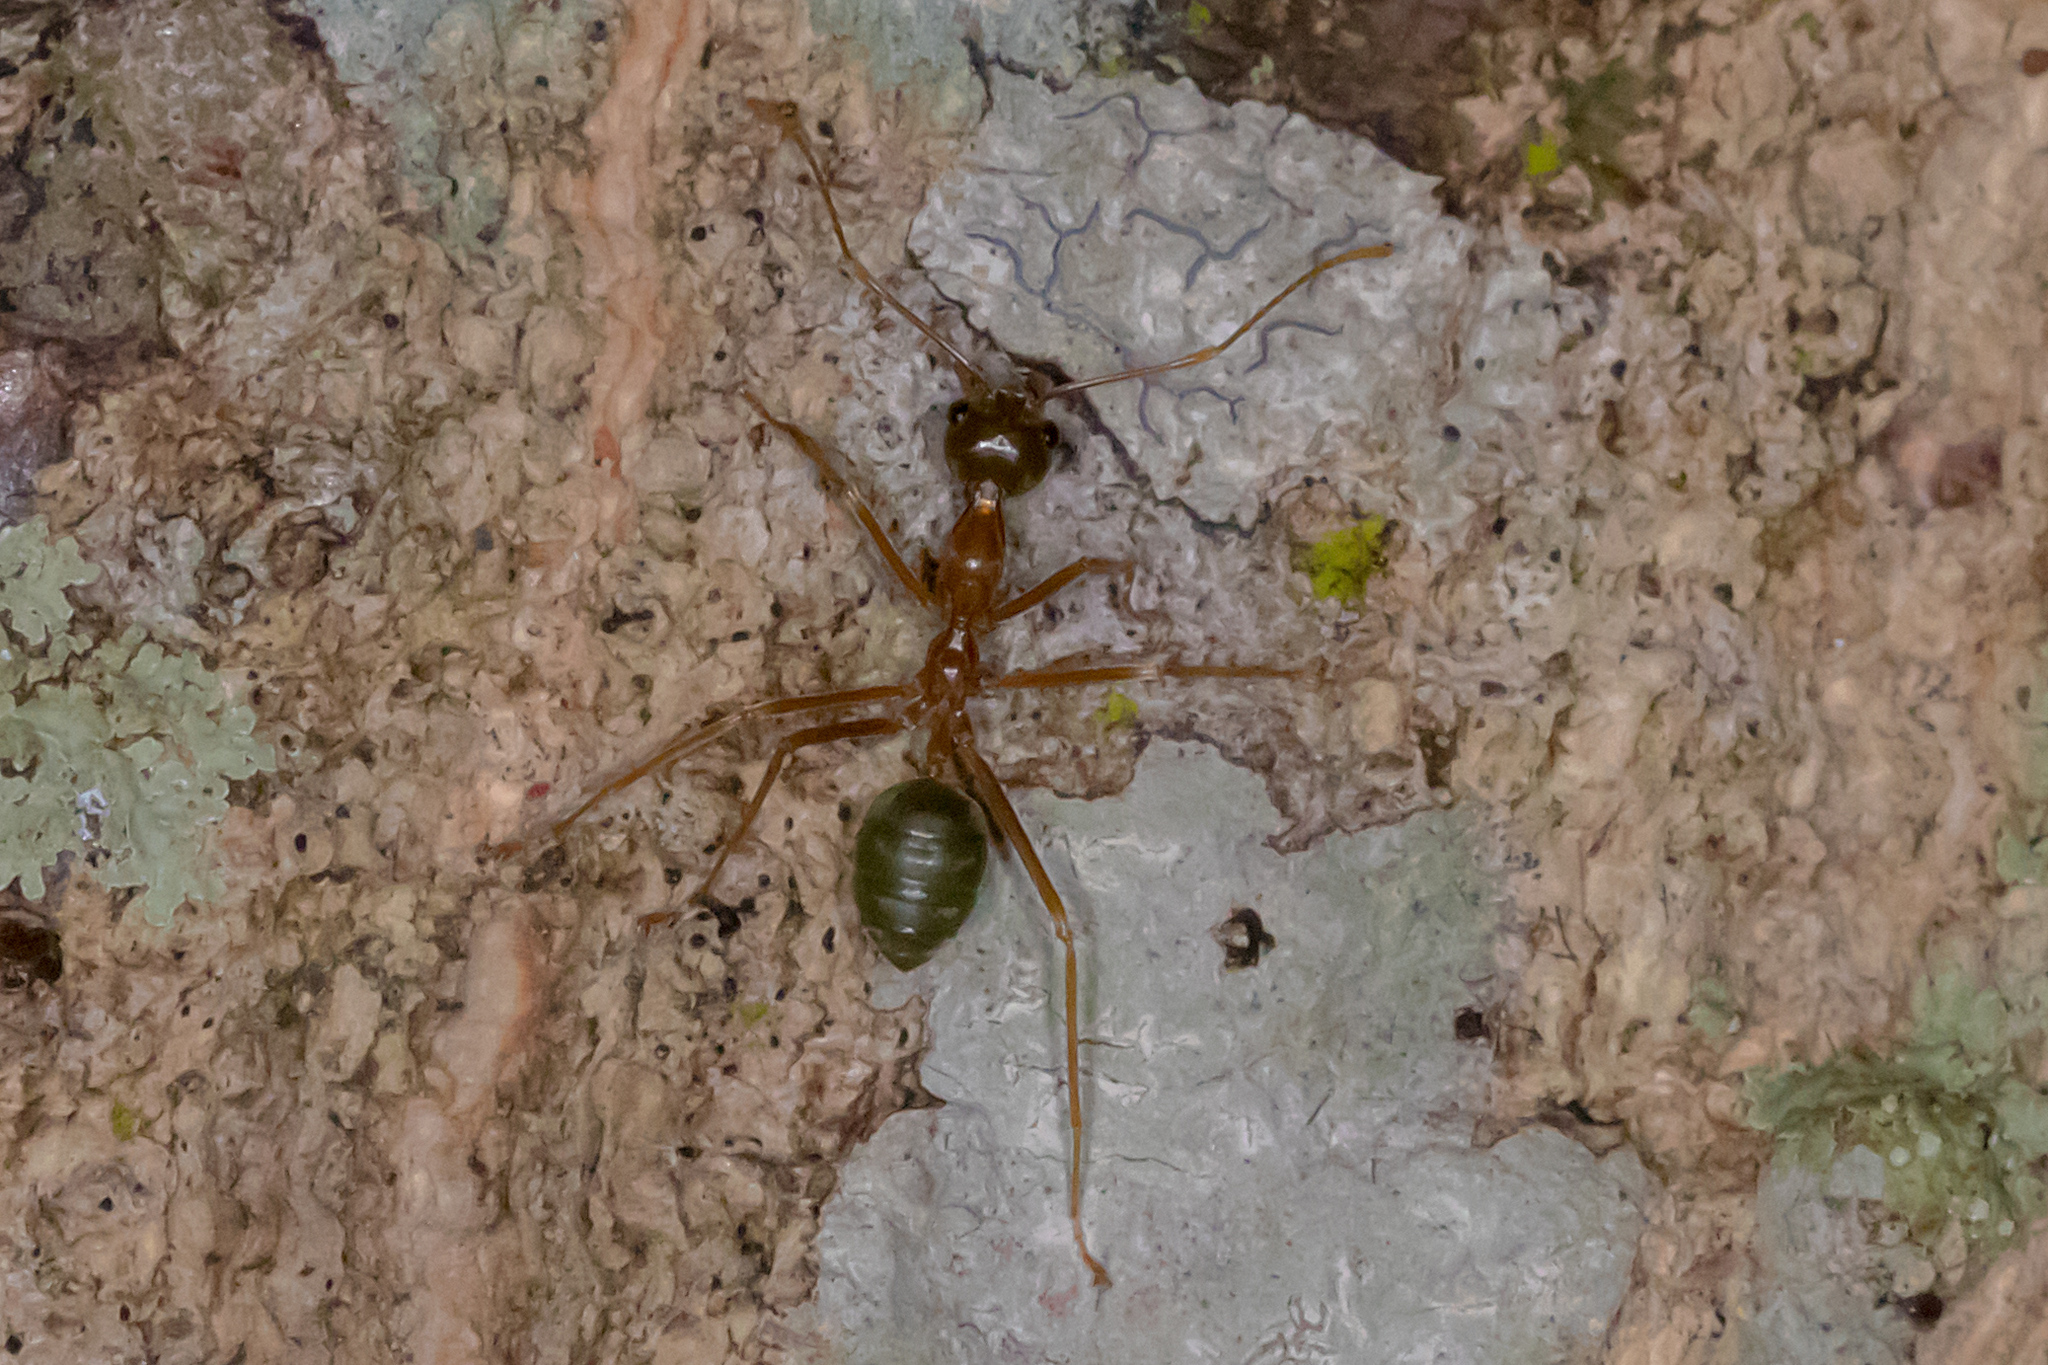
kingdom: Animalia
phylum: Arthropoda
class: Insecta
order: Hymenoptera
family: Formicidae
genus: Oecophylla
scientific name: Oecophylla smaragdina
